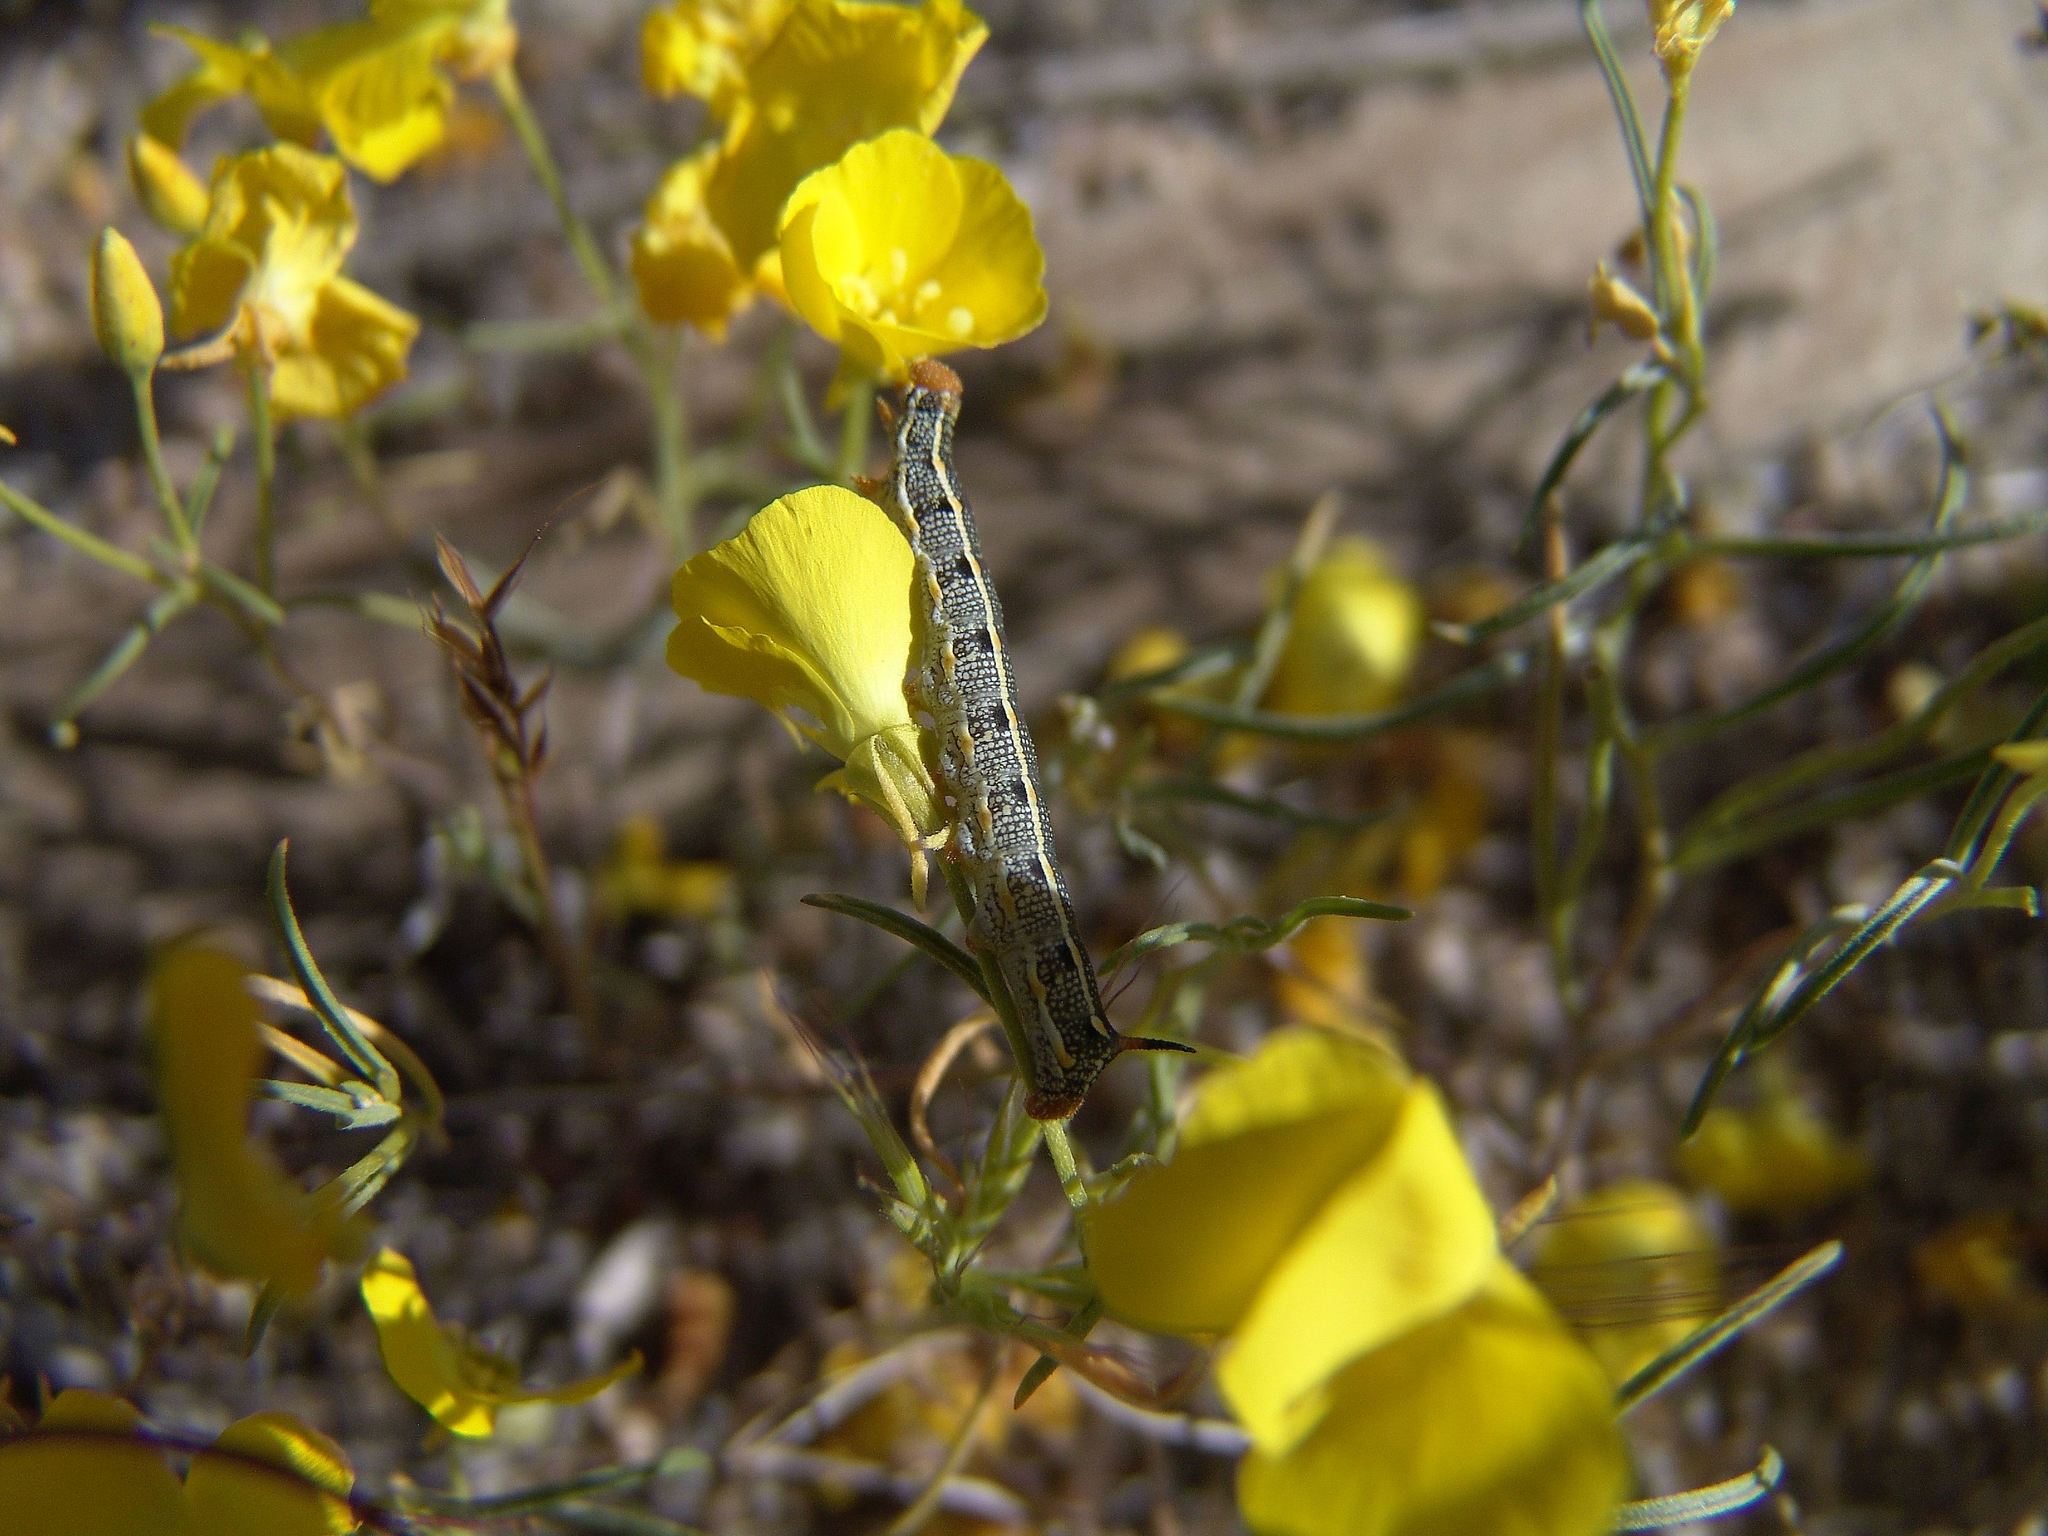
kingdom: Animalia
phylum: Arthropoda
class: Insecta
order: Lepidoptera
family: Sphingidae
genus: Hyles
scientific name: Hyles lineata
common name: White-lined sphinx
